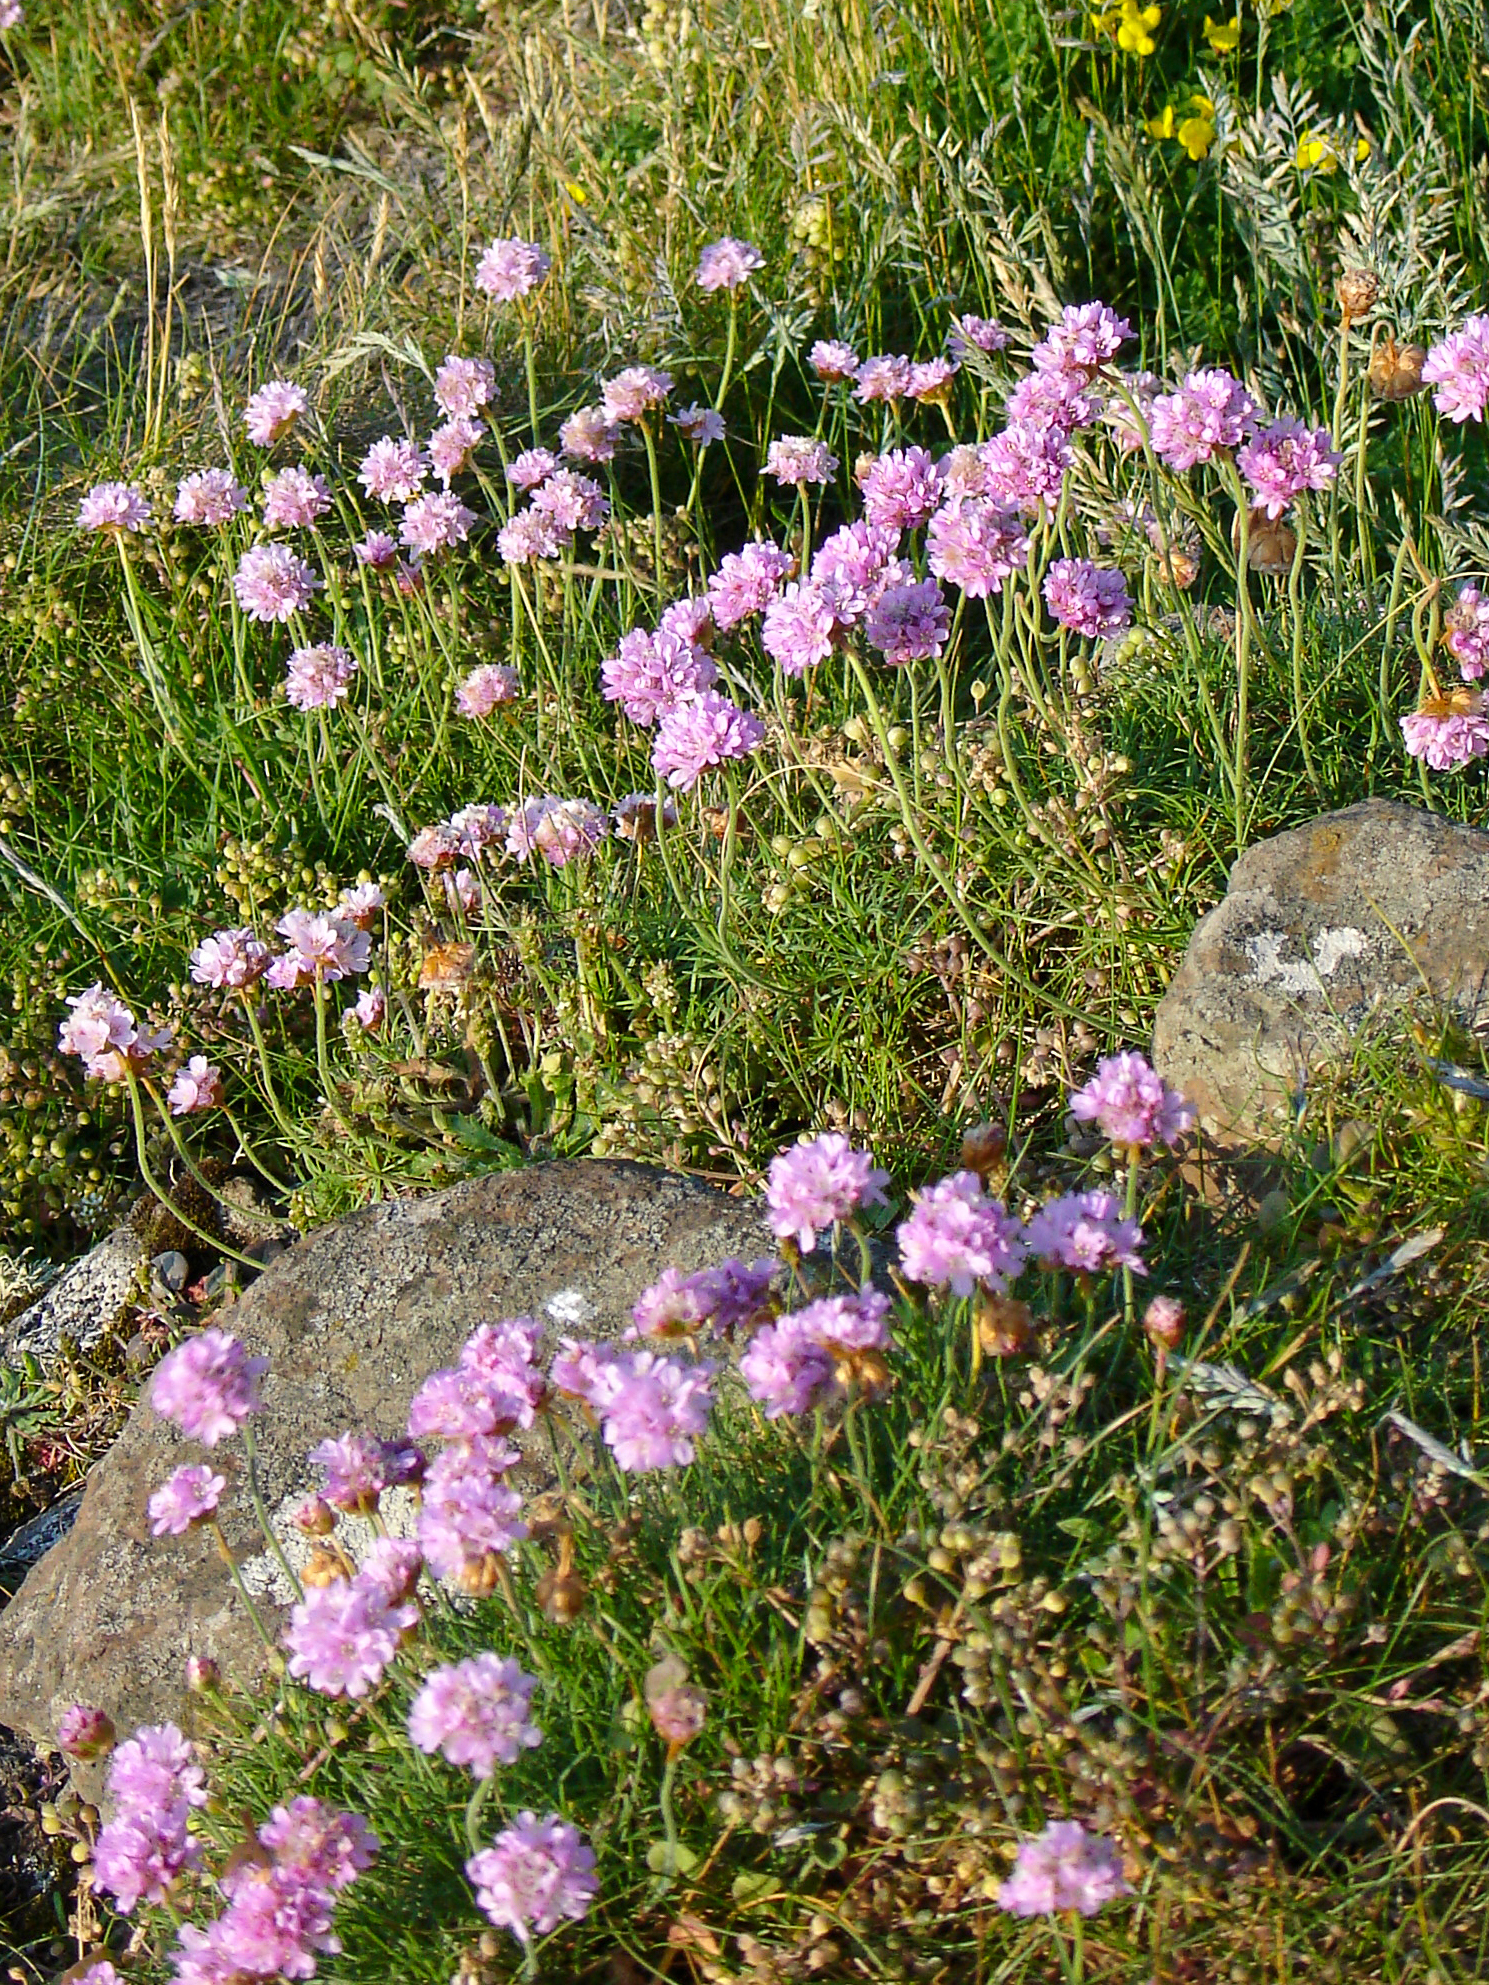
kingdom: Plantae
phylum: Tracheophyta
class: Magnoliopsida
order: Caryophyllales
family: Plumbaginaceae
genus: Armeria
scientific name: Armeria maritima
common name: Thrift
